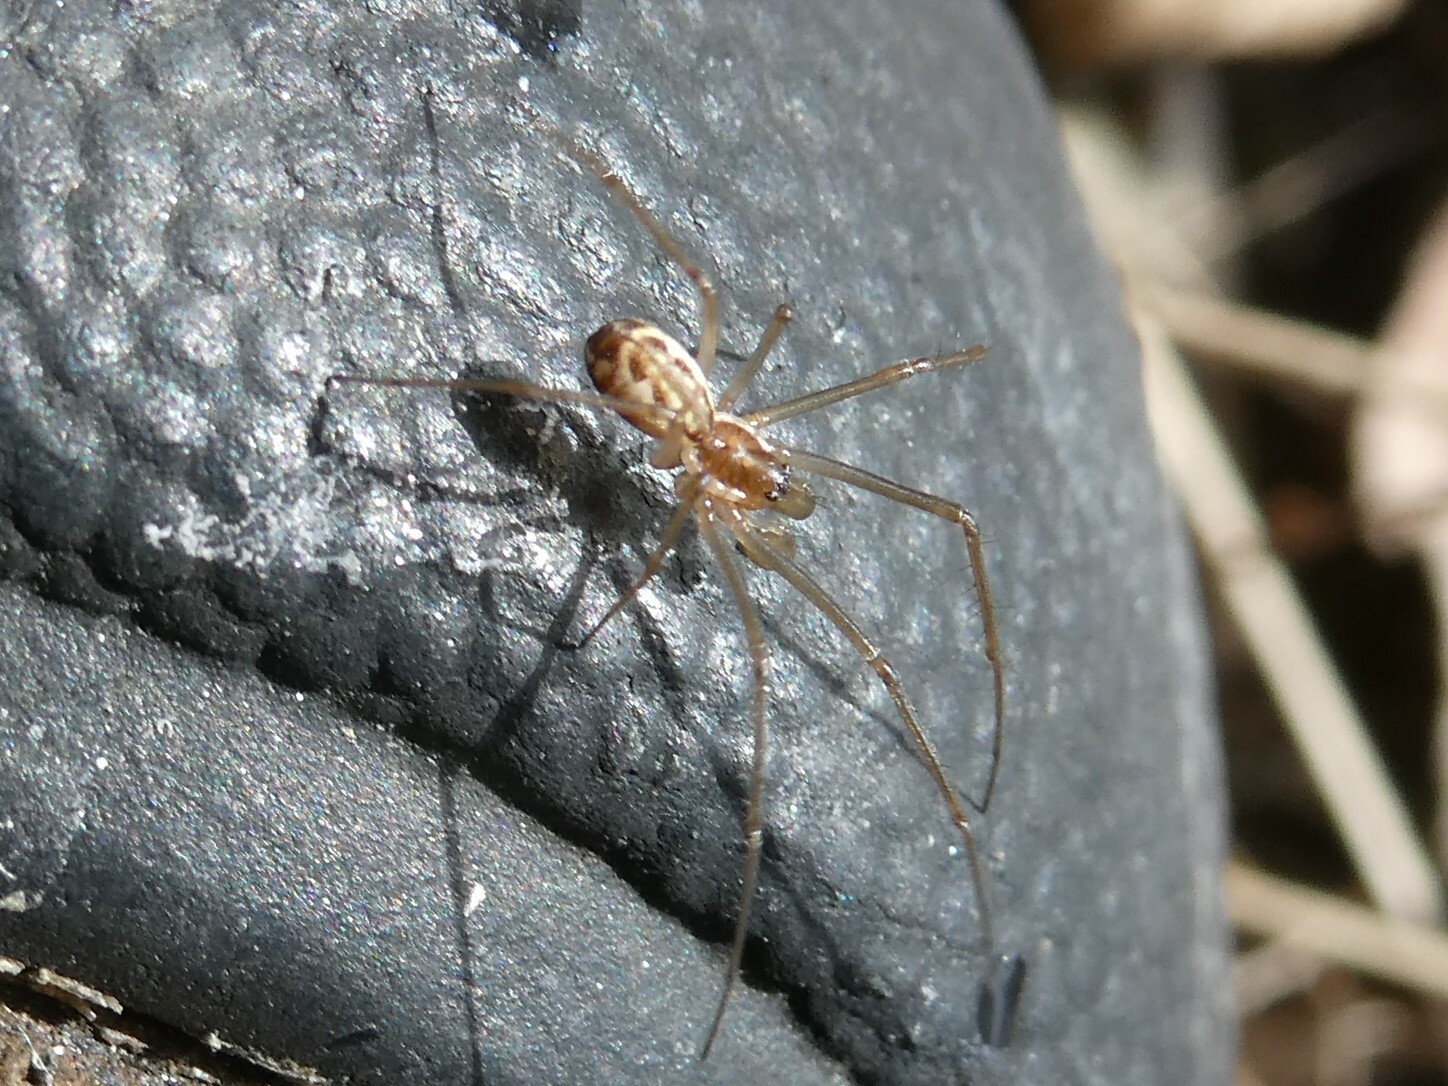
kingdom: Animalia
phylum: Arthropoda
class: Arachnida
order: Araneae
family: Linyphiidae
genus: Neriene
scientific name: Neriene radiata
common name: Filmy dome spider
